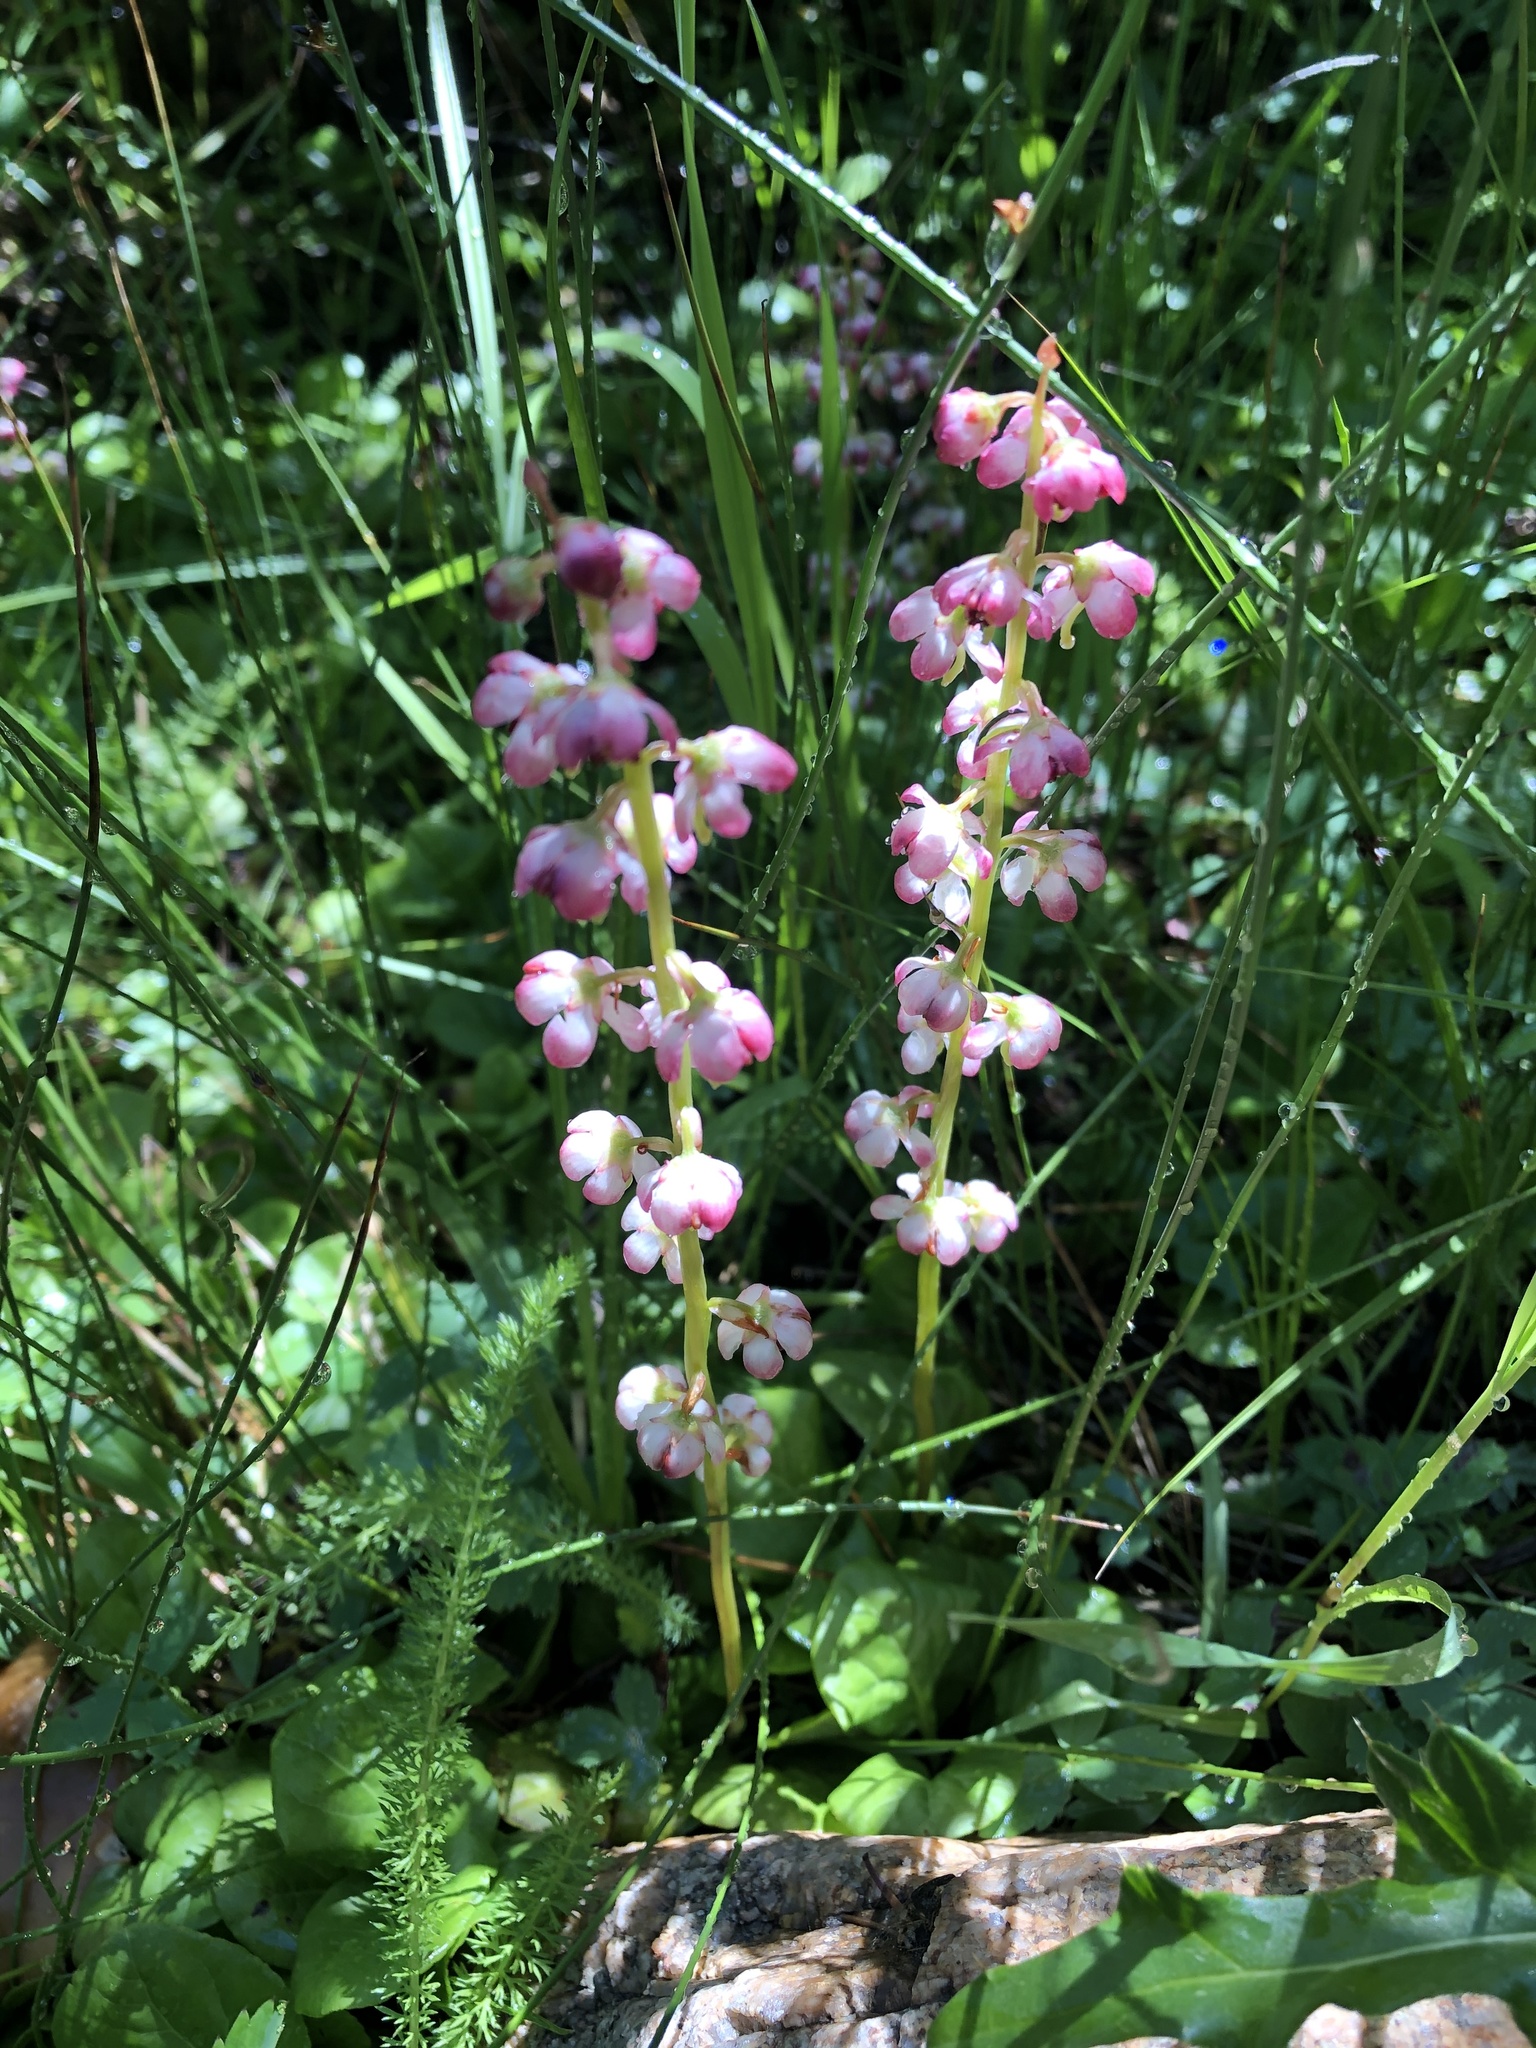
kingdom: Plantae
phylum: Tracheophyta
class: Magnoliopsida
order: Ericales
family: Ericaceae
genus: Pyrola
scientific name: Pyrola asarifolia
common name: Bog wintergreen
